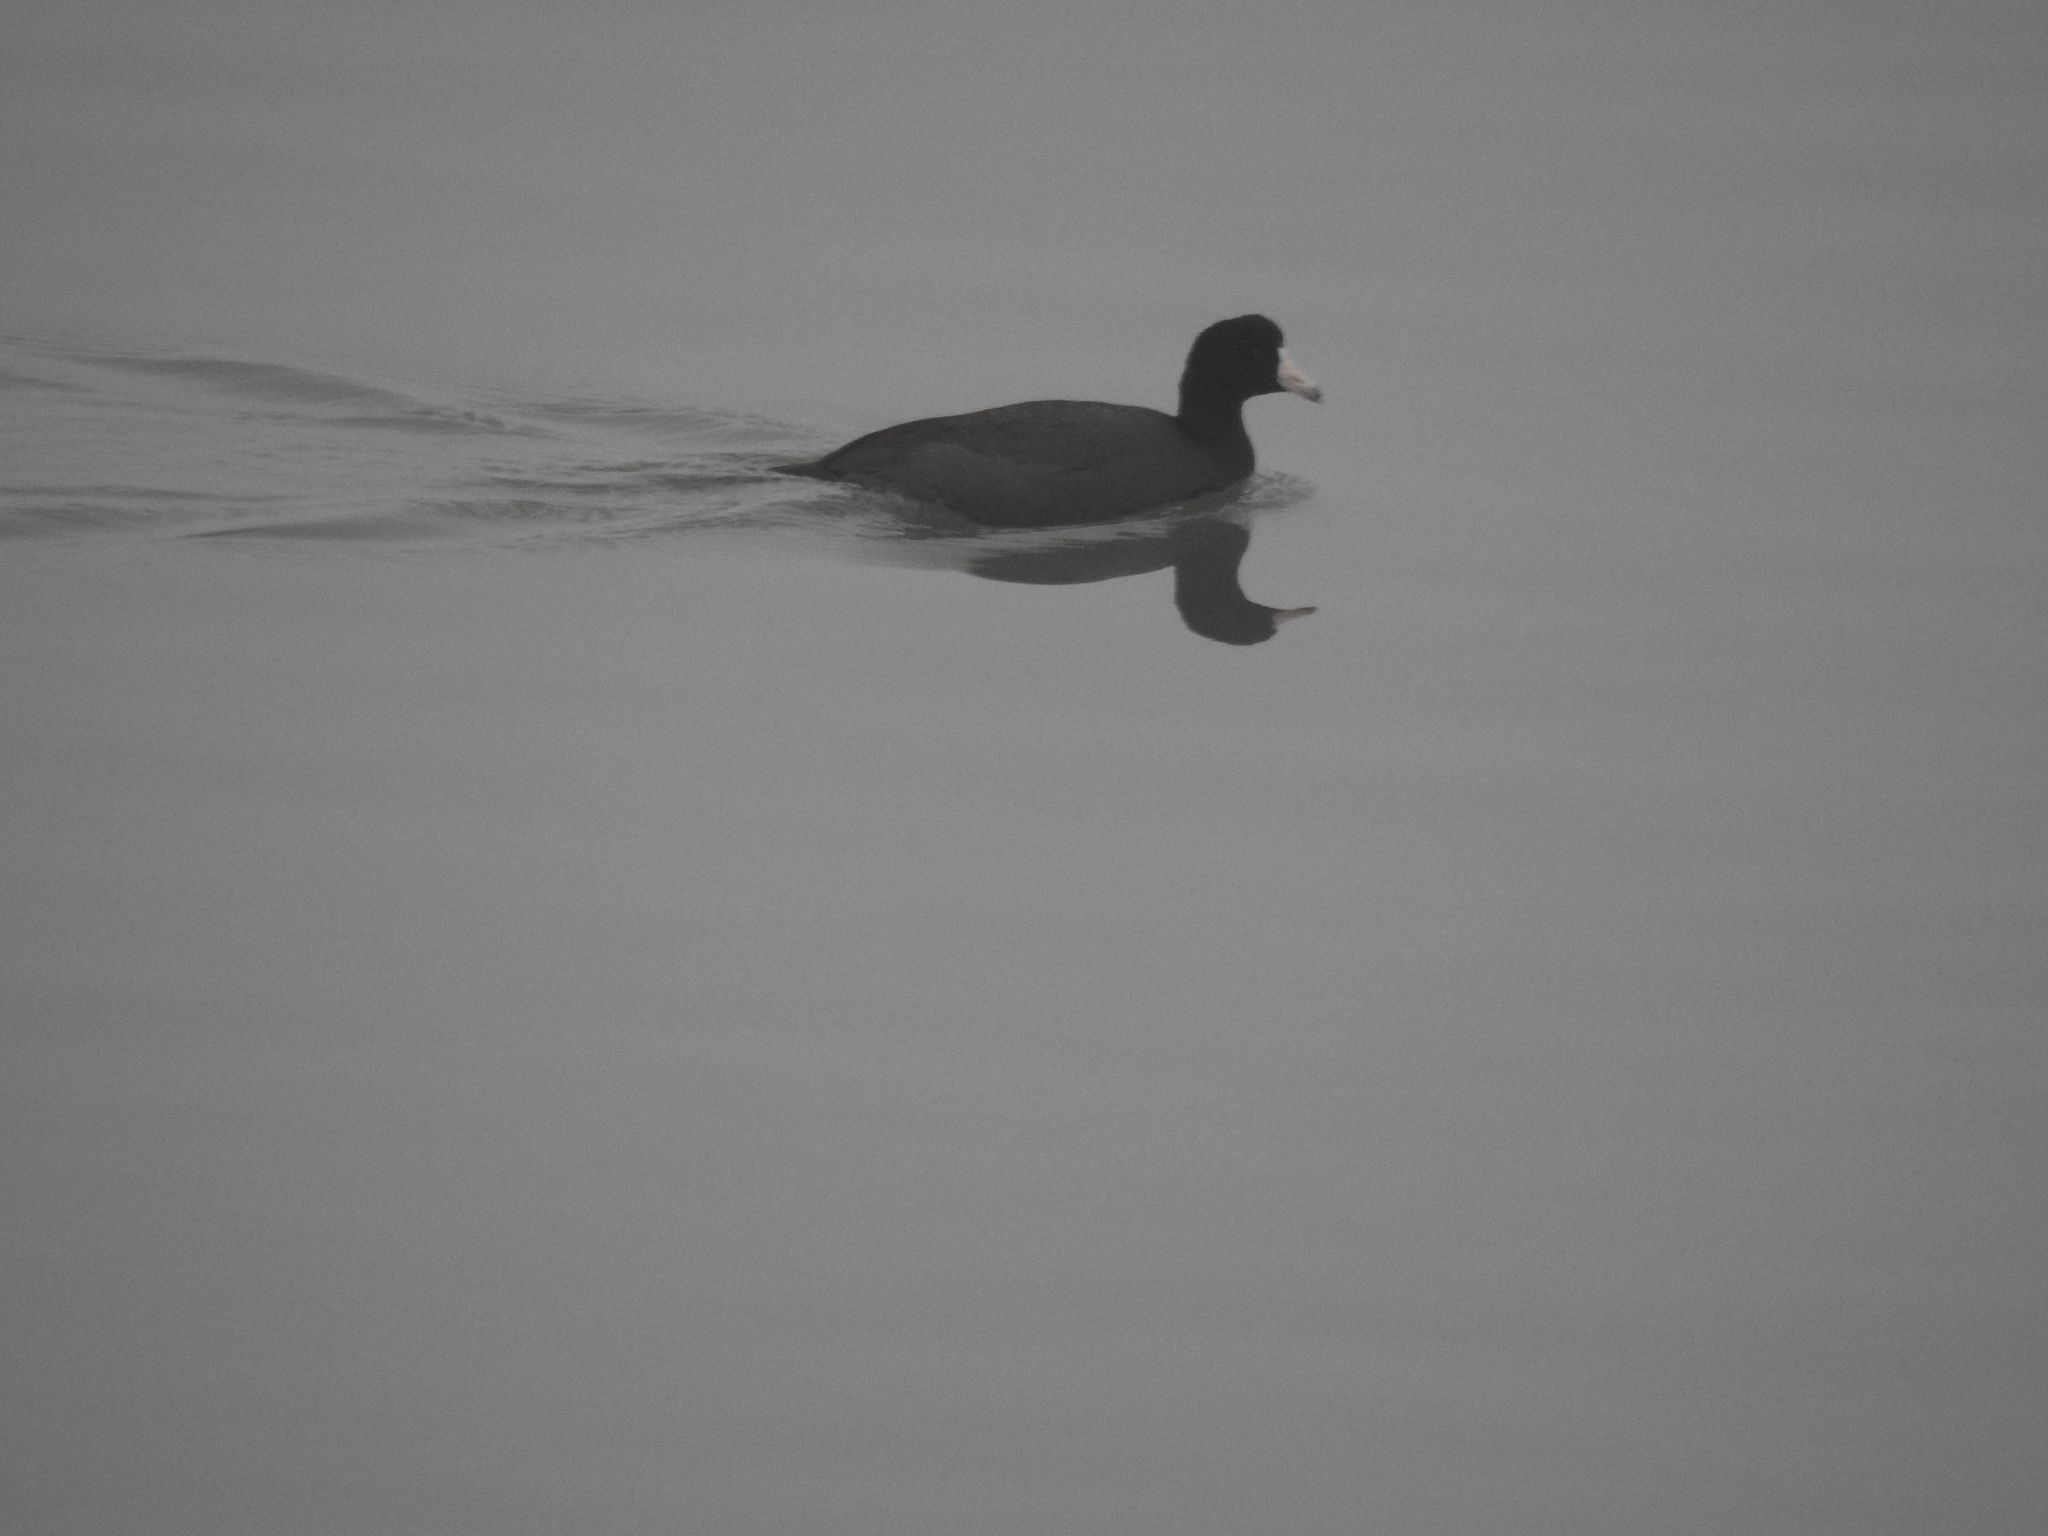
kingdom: Animalia
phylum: Chordata
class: Aves
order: Gruiformes
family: Rallidae
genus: Fulica
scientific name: Fulica americana
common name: American coot
